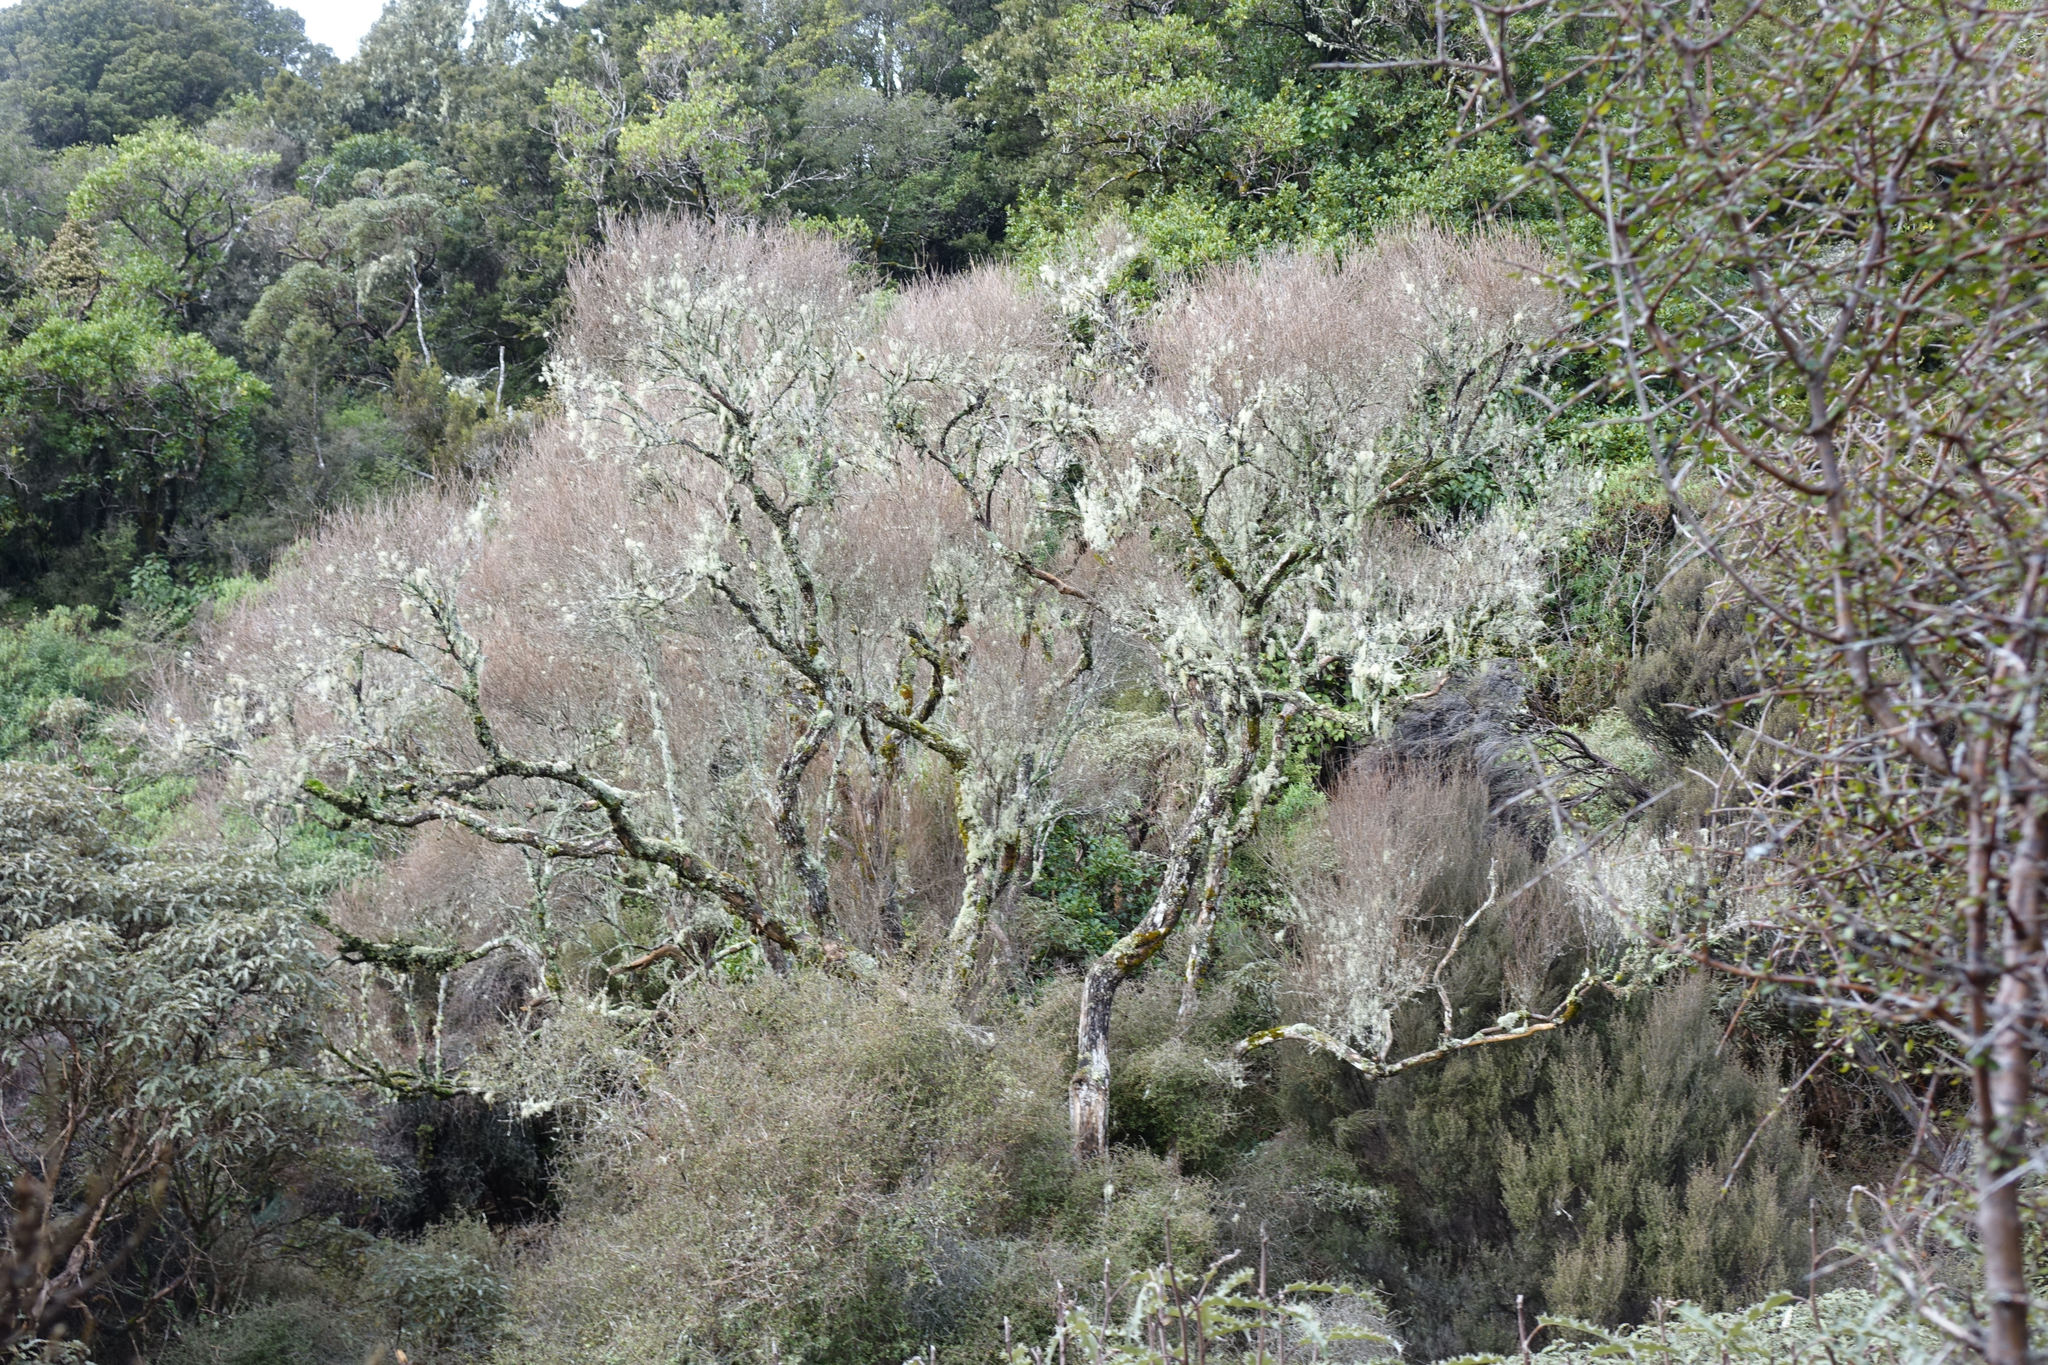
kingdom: Plantae
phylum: Tracheophyta
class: Magnoliopsida
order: Asterales
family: Asteraceae
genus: Olearia
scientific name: Olearia laxiflora
